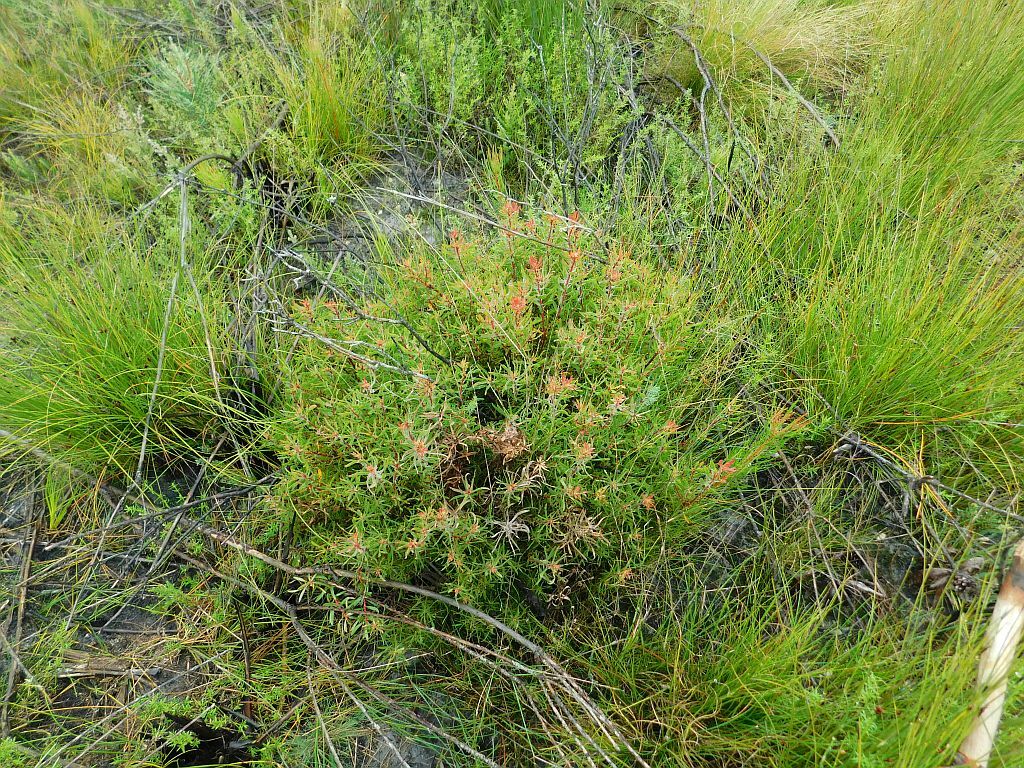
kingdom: Plantae
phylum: Tracheophyta
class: Magnoliopsida
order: Proteales
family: Proteaceae
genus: Leucadendron
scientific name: Leucadendron spissifolium
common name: Spear-leaf conebush
